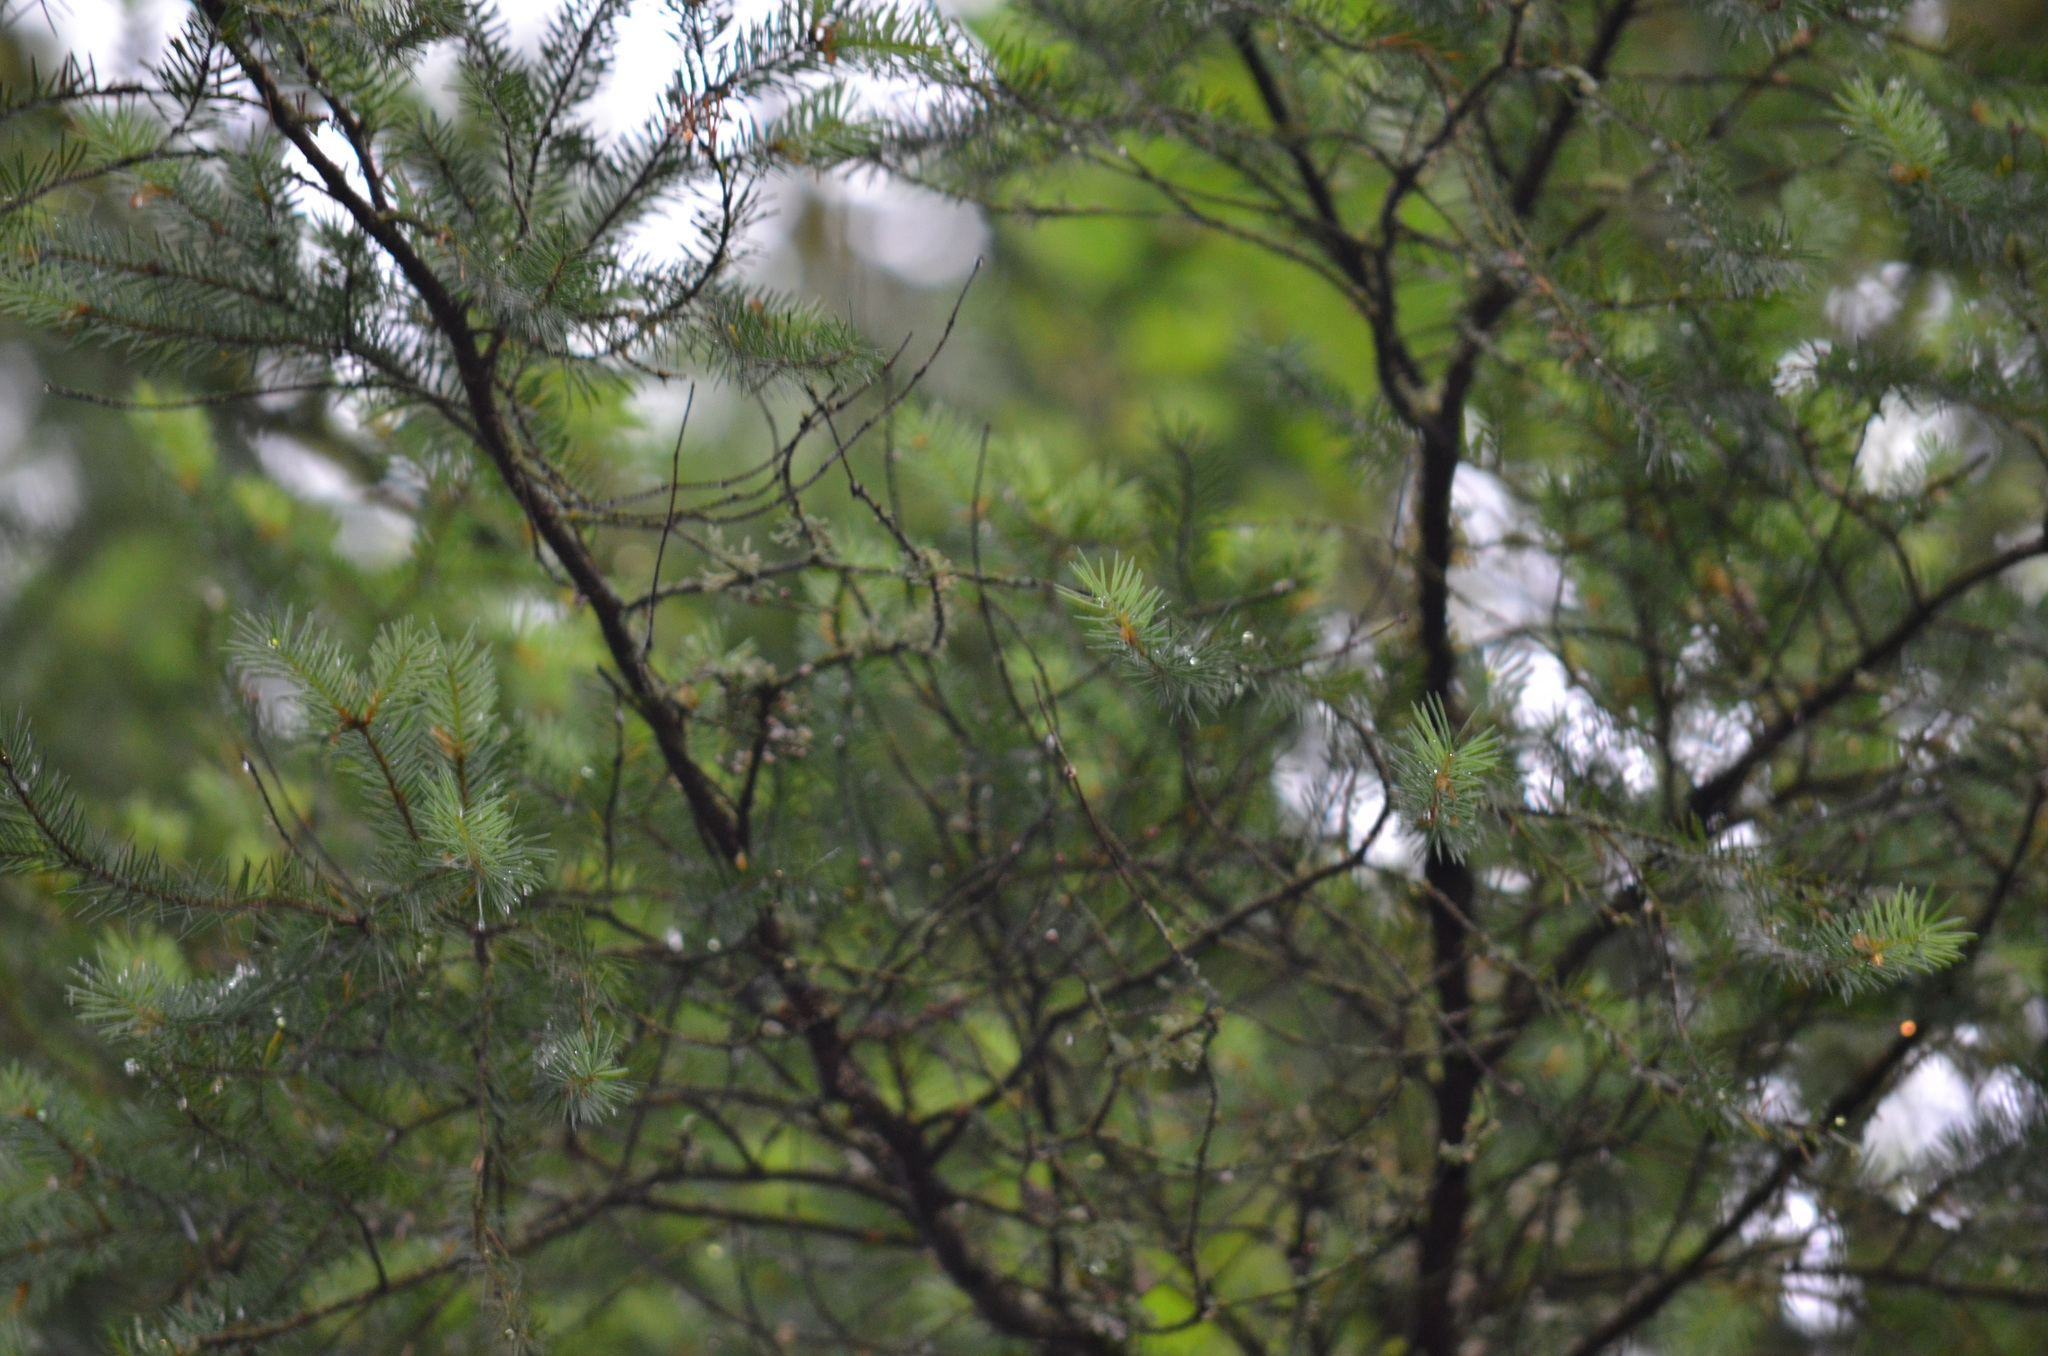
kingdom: Plantae
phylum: Tracheophyta
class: Pinopsida
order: Pinales
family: Pinaceae
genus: Pseudotsuga
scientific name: Pseudotsuga menziesii
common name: Douglas fir
